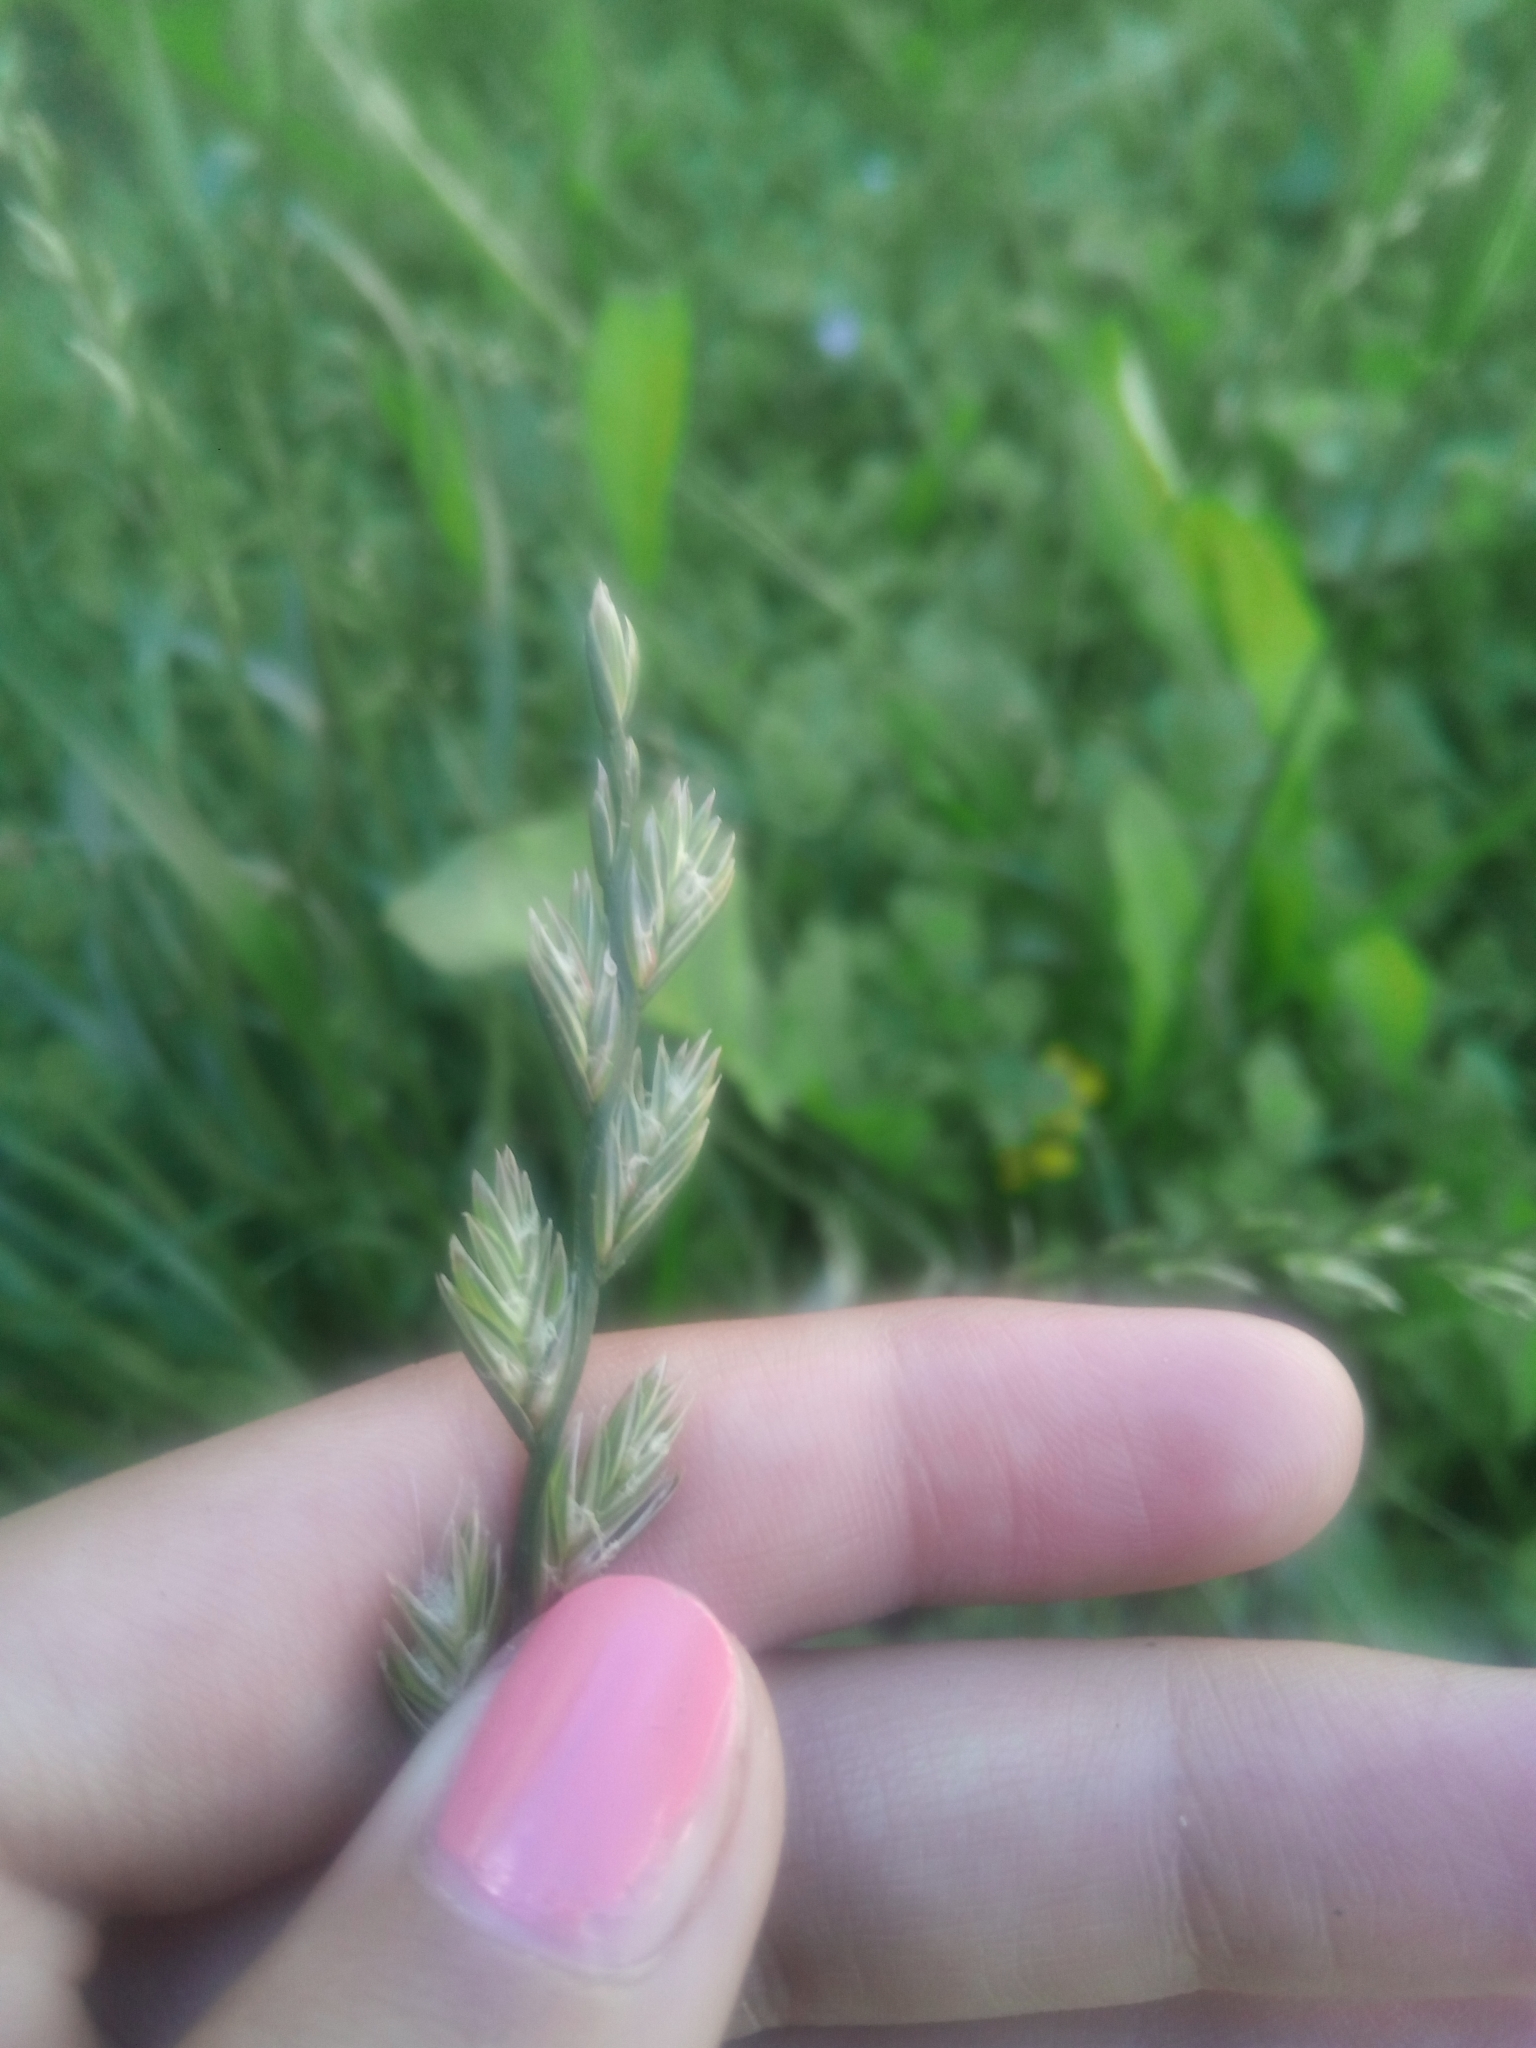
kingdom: Plantae
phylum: Tracheophyta
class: Liliopsida
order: Poales
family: Poaceae
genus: Lolium
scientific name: Lolium perenne
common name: Perennial ryegrass
